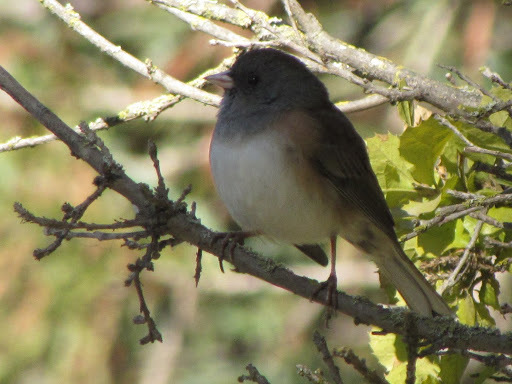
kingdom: Animalia
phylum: Chordata
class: Aves
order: Passeriformes
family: Passerellidae
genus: Junco
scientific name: Junco hyemalis
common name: Dark-eyed junco
